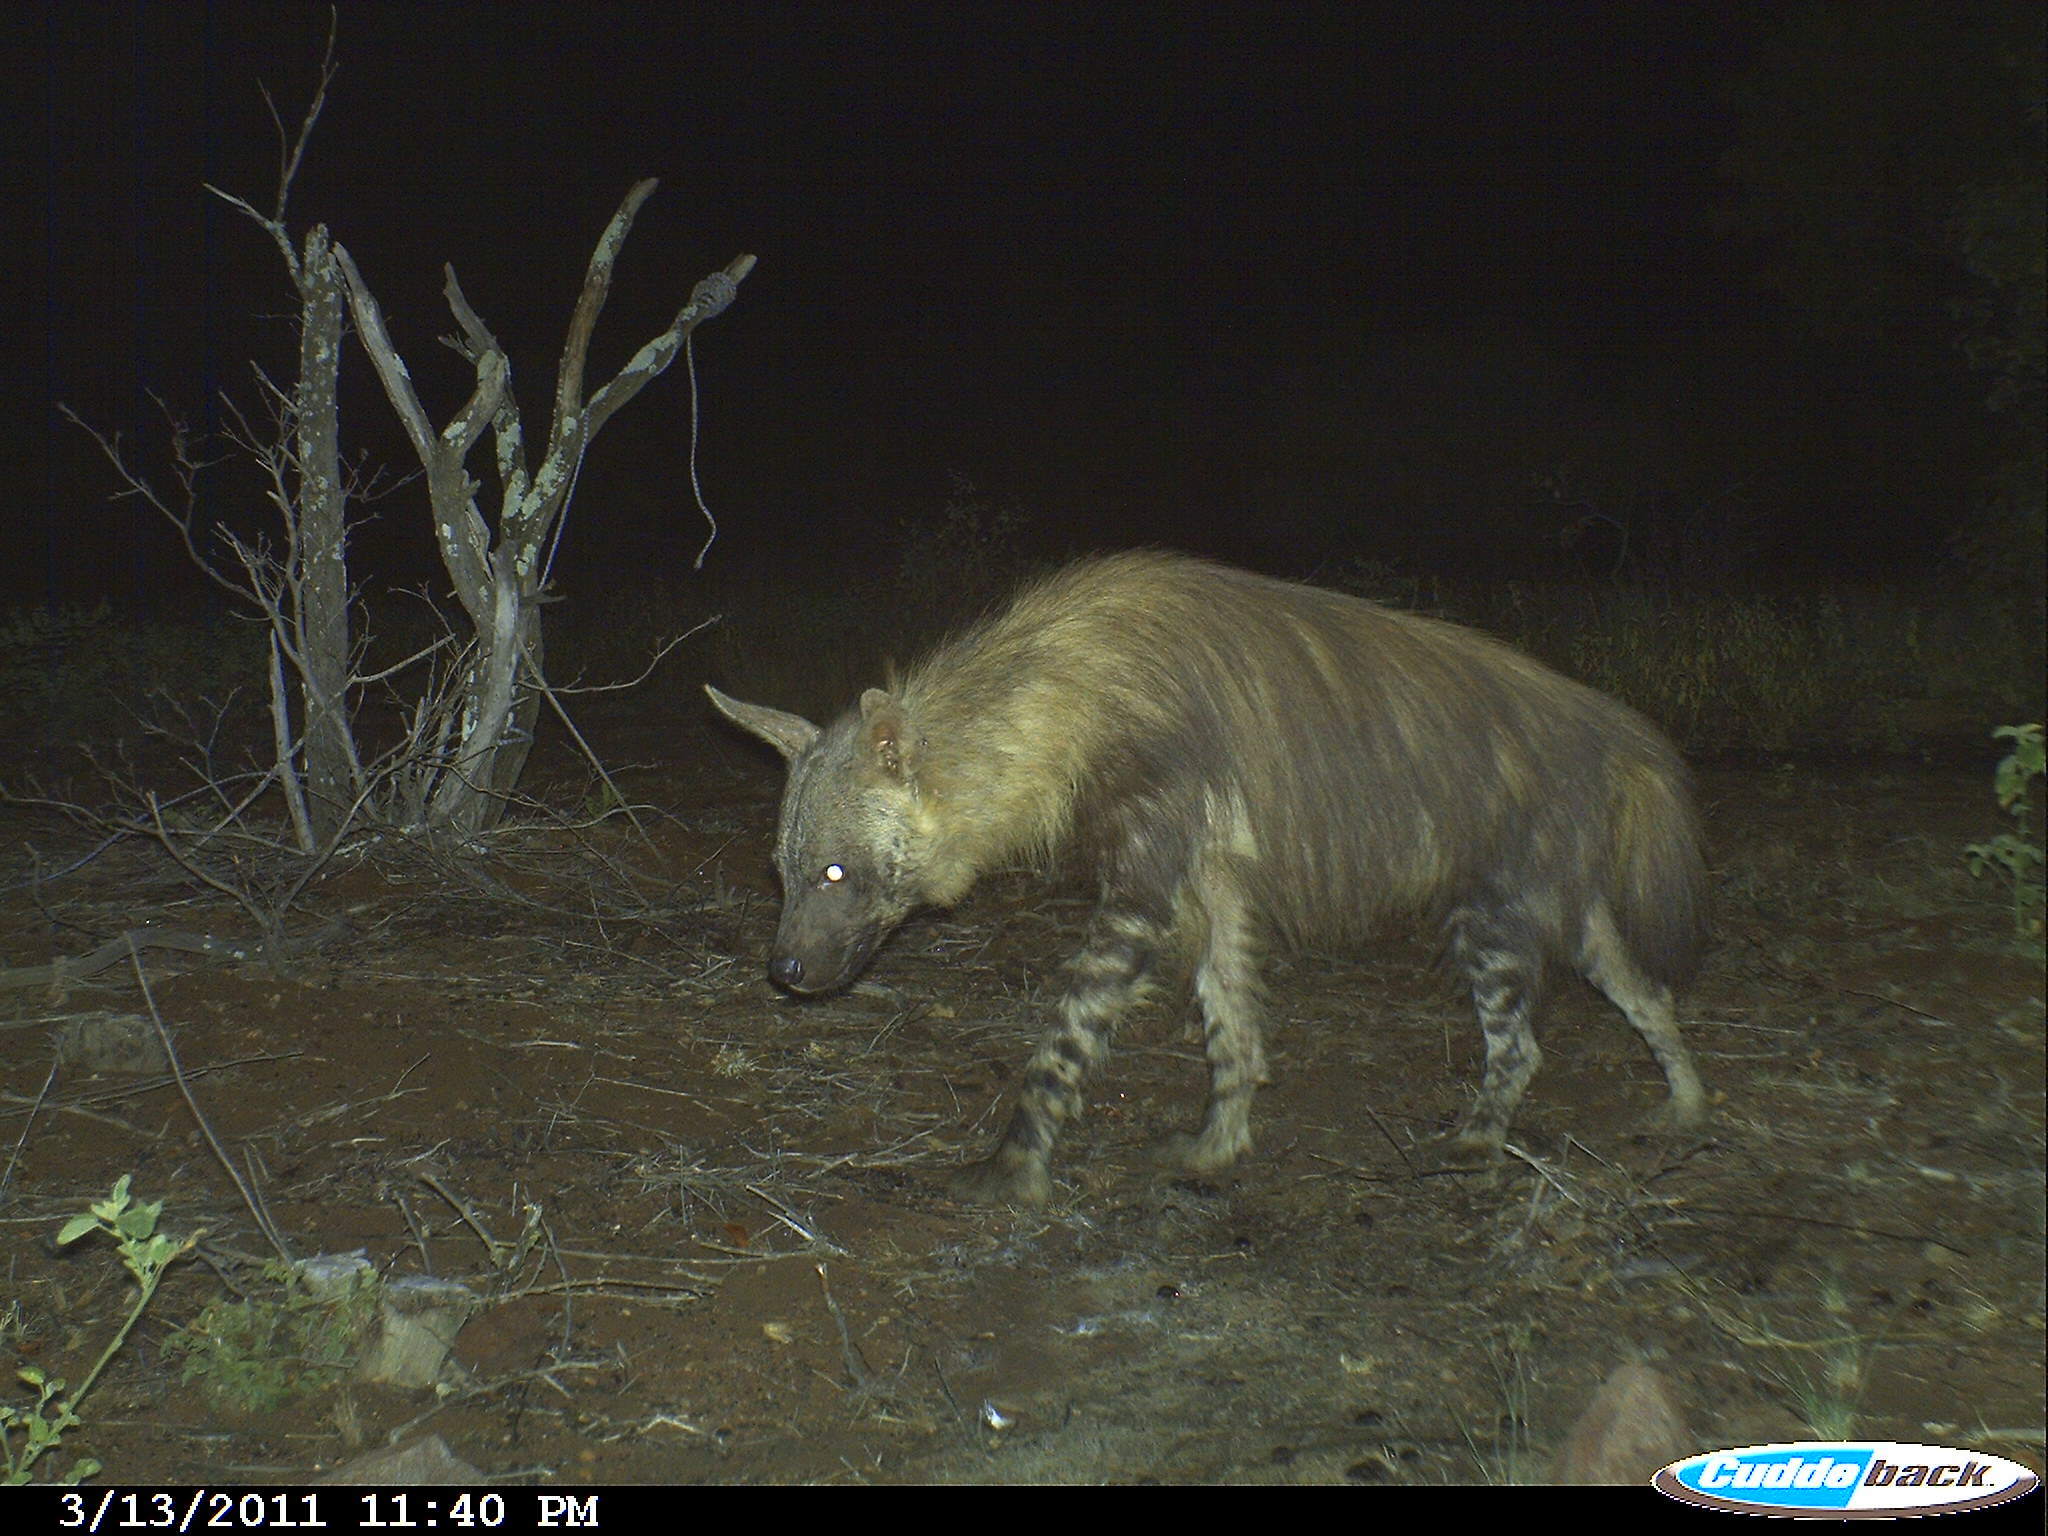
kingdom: Animalia
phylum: Chordata
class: Mammalia
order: Carnivora
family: Hyaenidae
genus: Hyaena
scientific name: Hyaena brunnea
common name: Brown hyena
